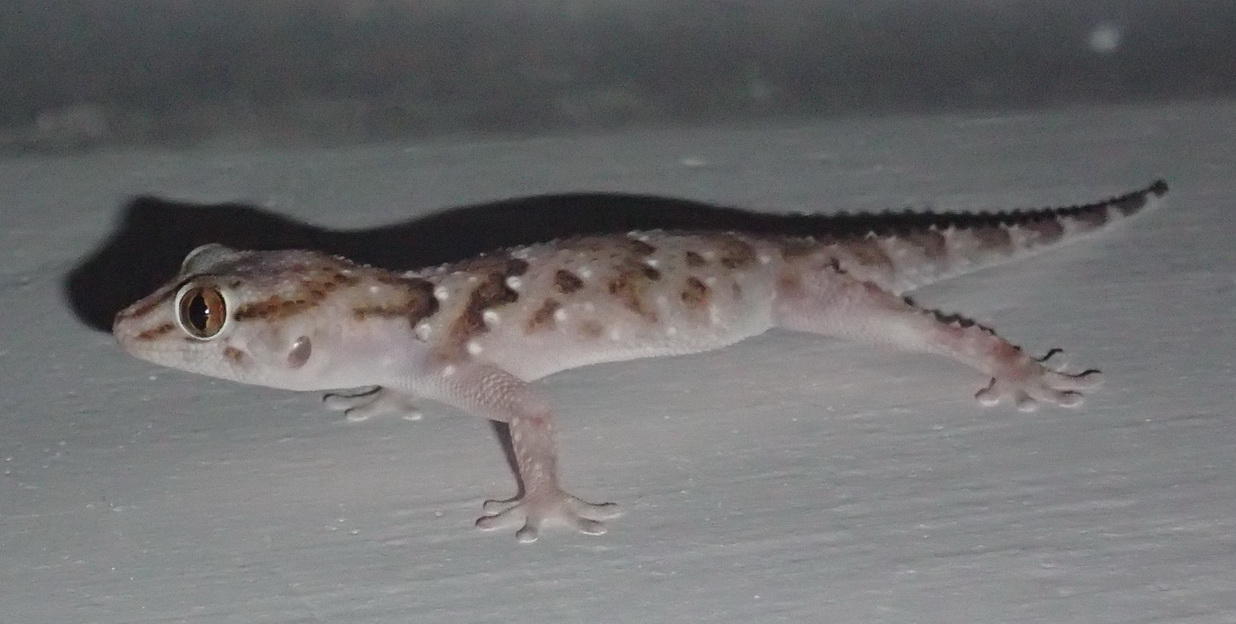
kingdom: Animalia
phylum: Chordata
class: Squamata
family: Gekkonidae
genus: Chondrodactylus
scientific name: Chondrodactylus bibronii
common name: Bibron's gecko
